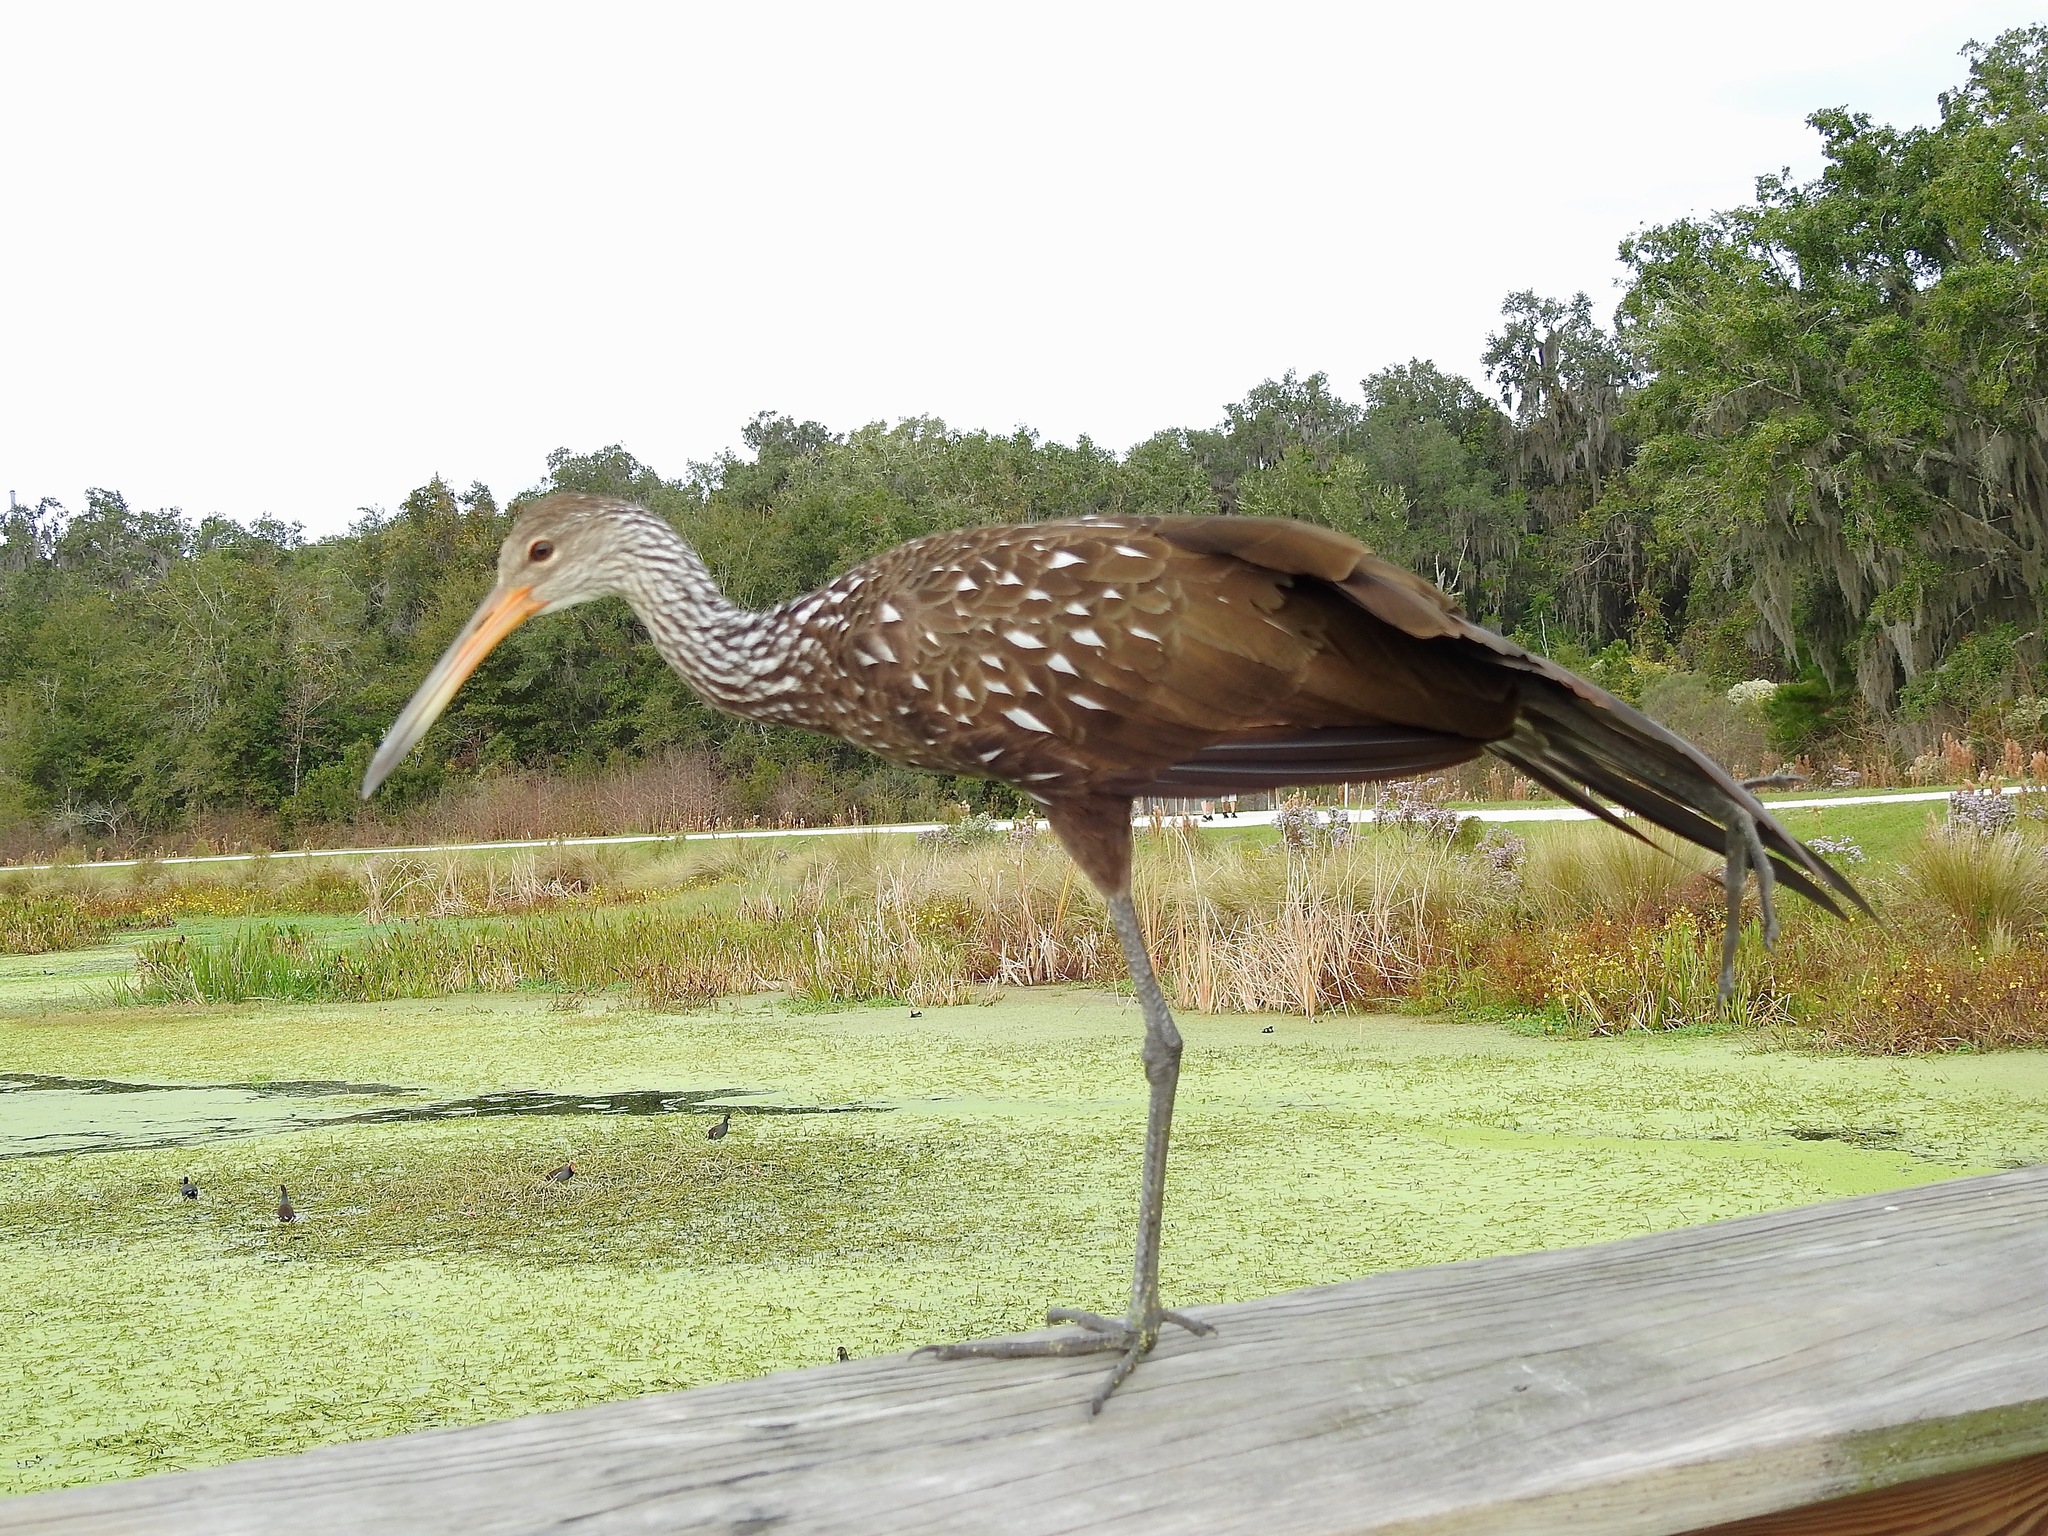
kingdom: Animalia
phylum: Chordata
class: Aves
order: Gruiformes
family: Aramidae
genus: Aramus
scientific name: Aramus guarauna
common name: Limpkin
